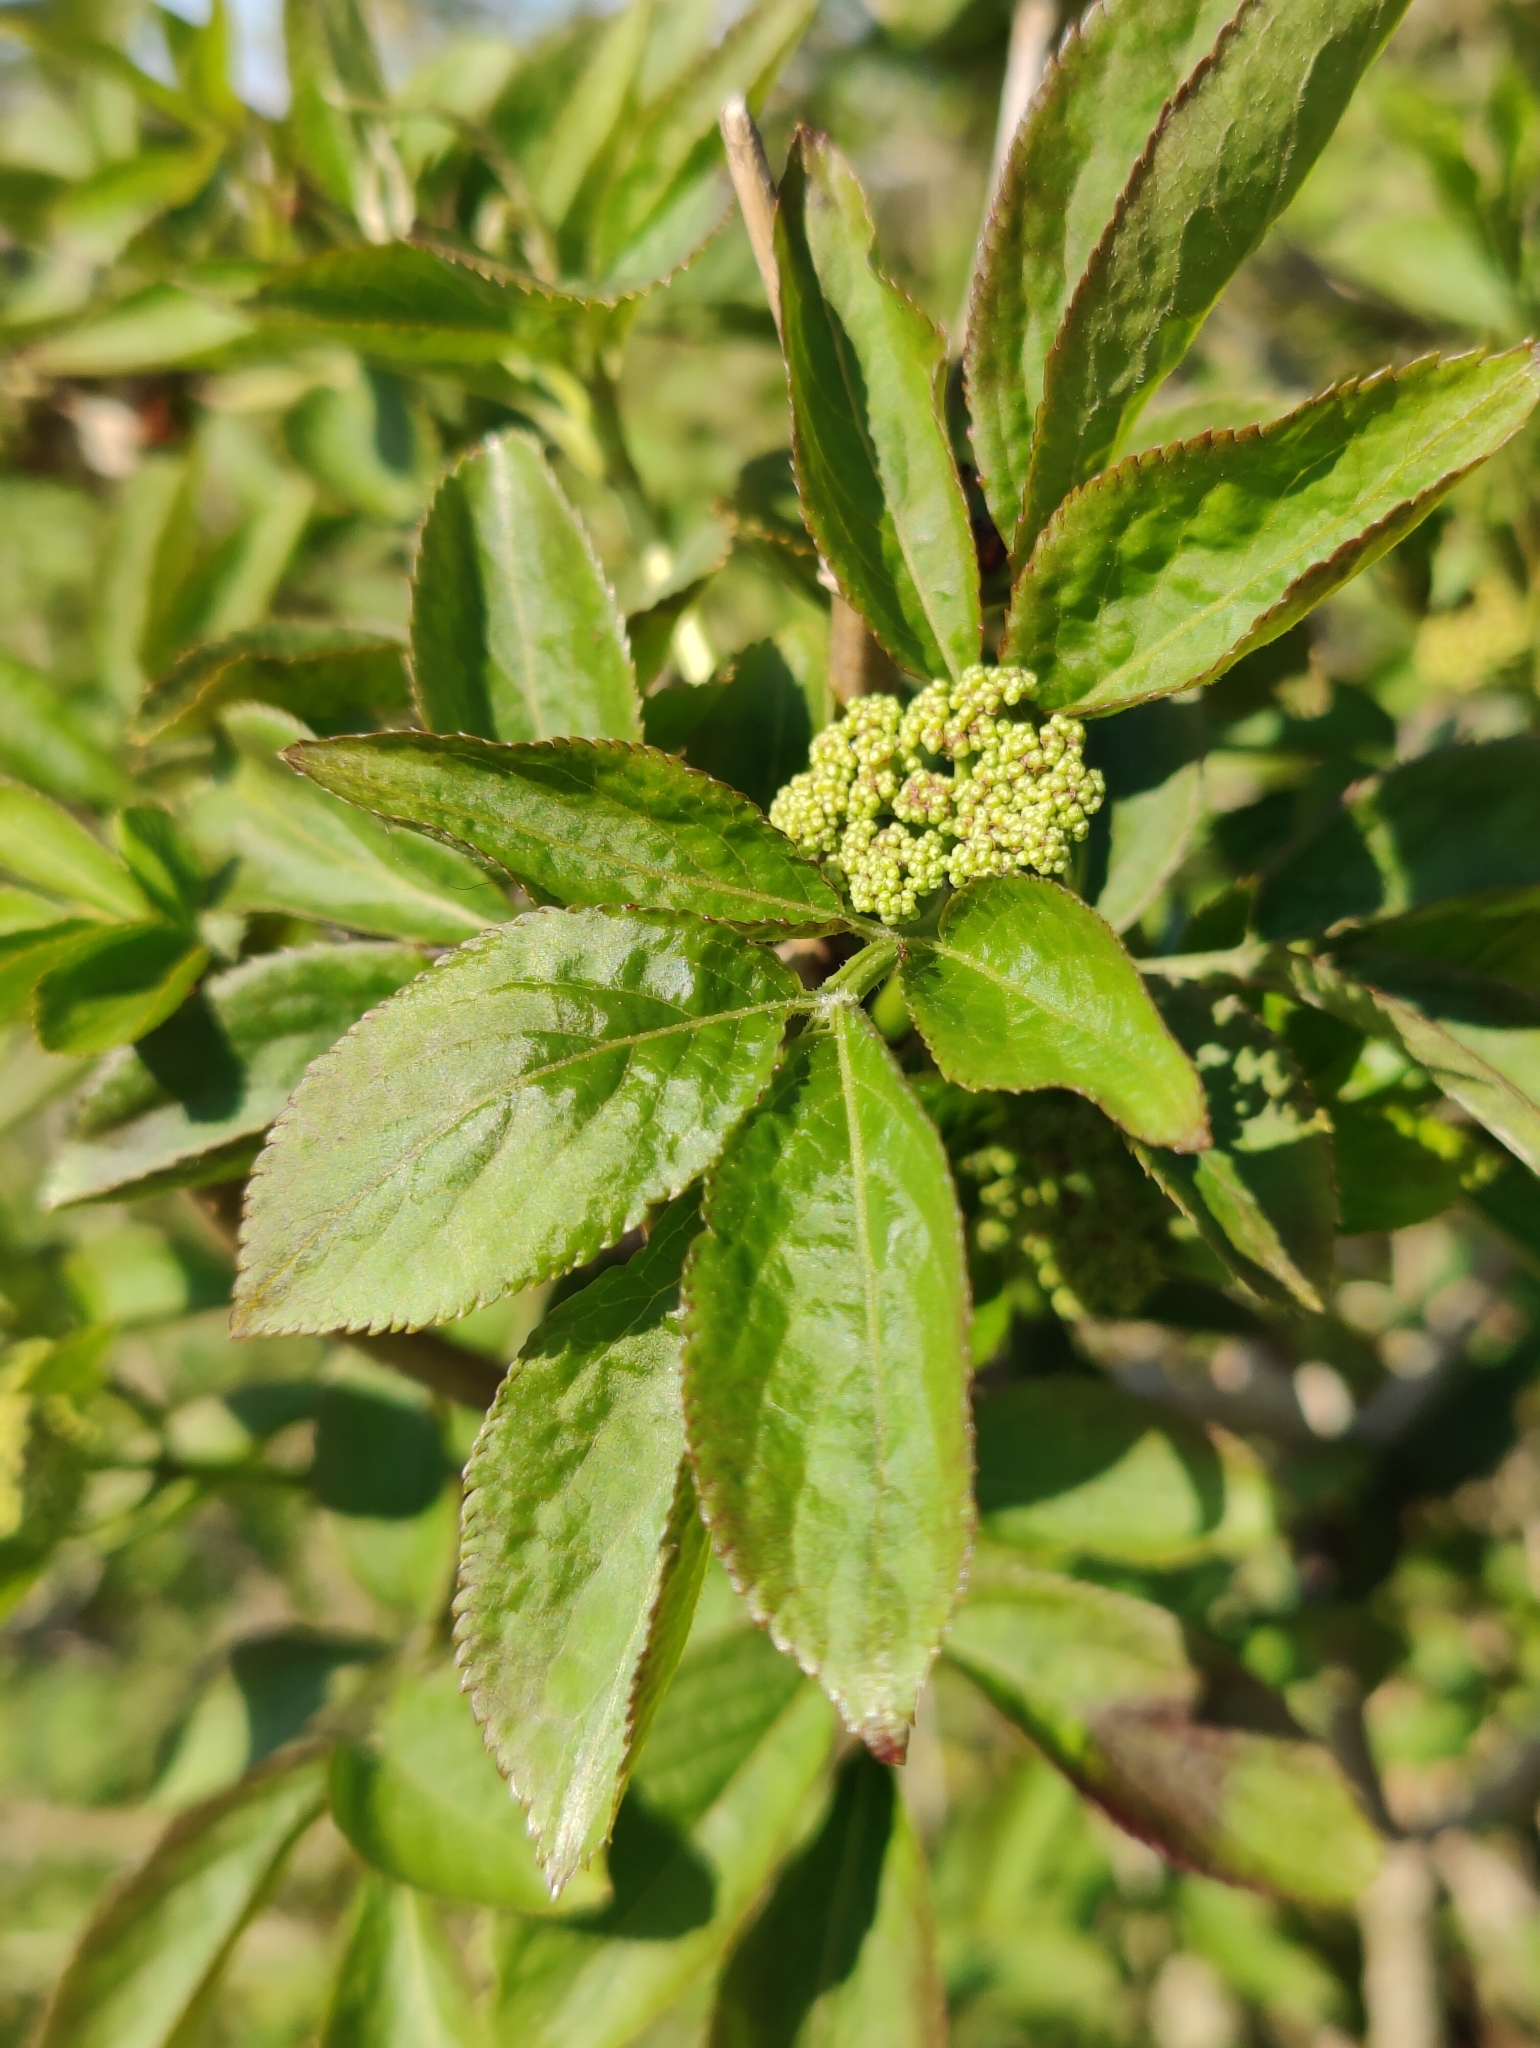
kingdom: Plantae
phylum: Tracheophyta
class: Magnoliopsida
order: Dipsacales
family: Viburnaceae
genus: Sambucus
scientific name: Sambucus nigra
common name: Elder
